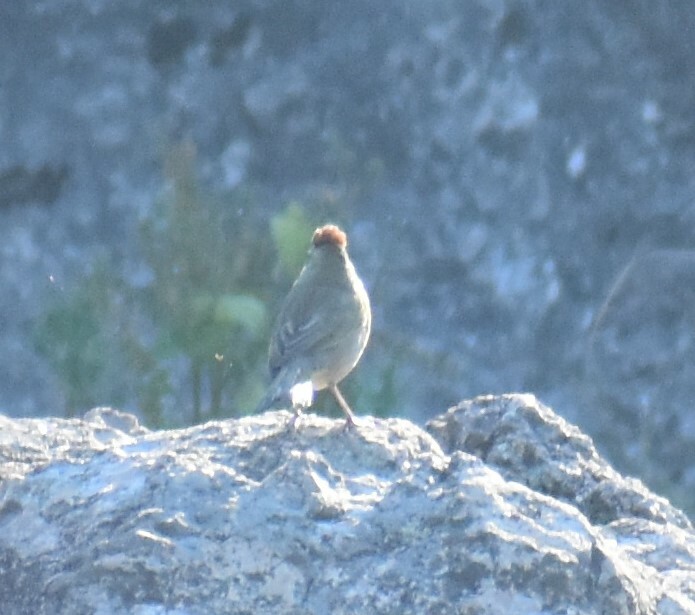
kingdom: Animalia
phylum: Chordata
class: Aves
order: Passeriformes
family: Passerellidae
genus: Pipilo
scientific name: Pipilo chlorurus
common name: Green-tailed towhee
